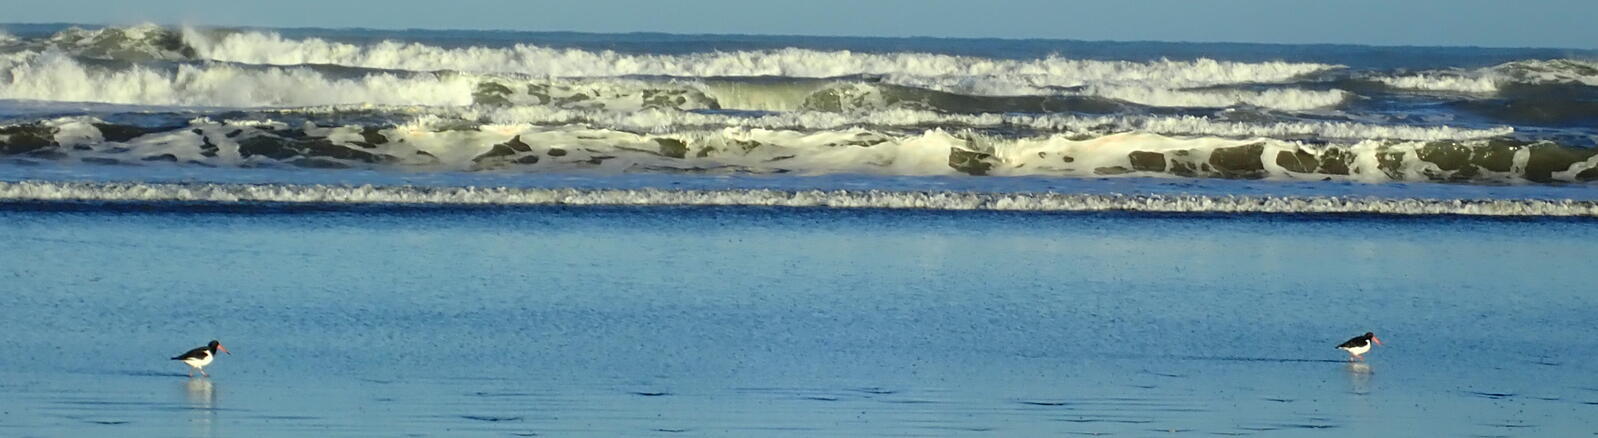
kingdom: Animalia
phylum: Chordata
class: Aves
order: Charadriiformes
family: Haematopodidae
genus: Haematopus
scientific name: Haematopus finschi
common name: South island oystercatcher
